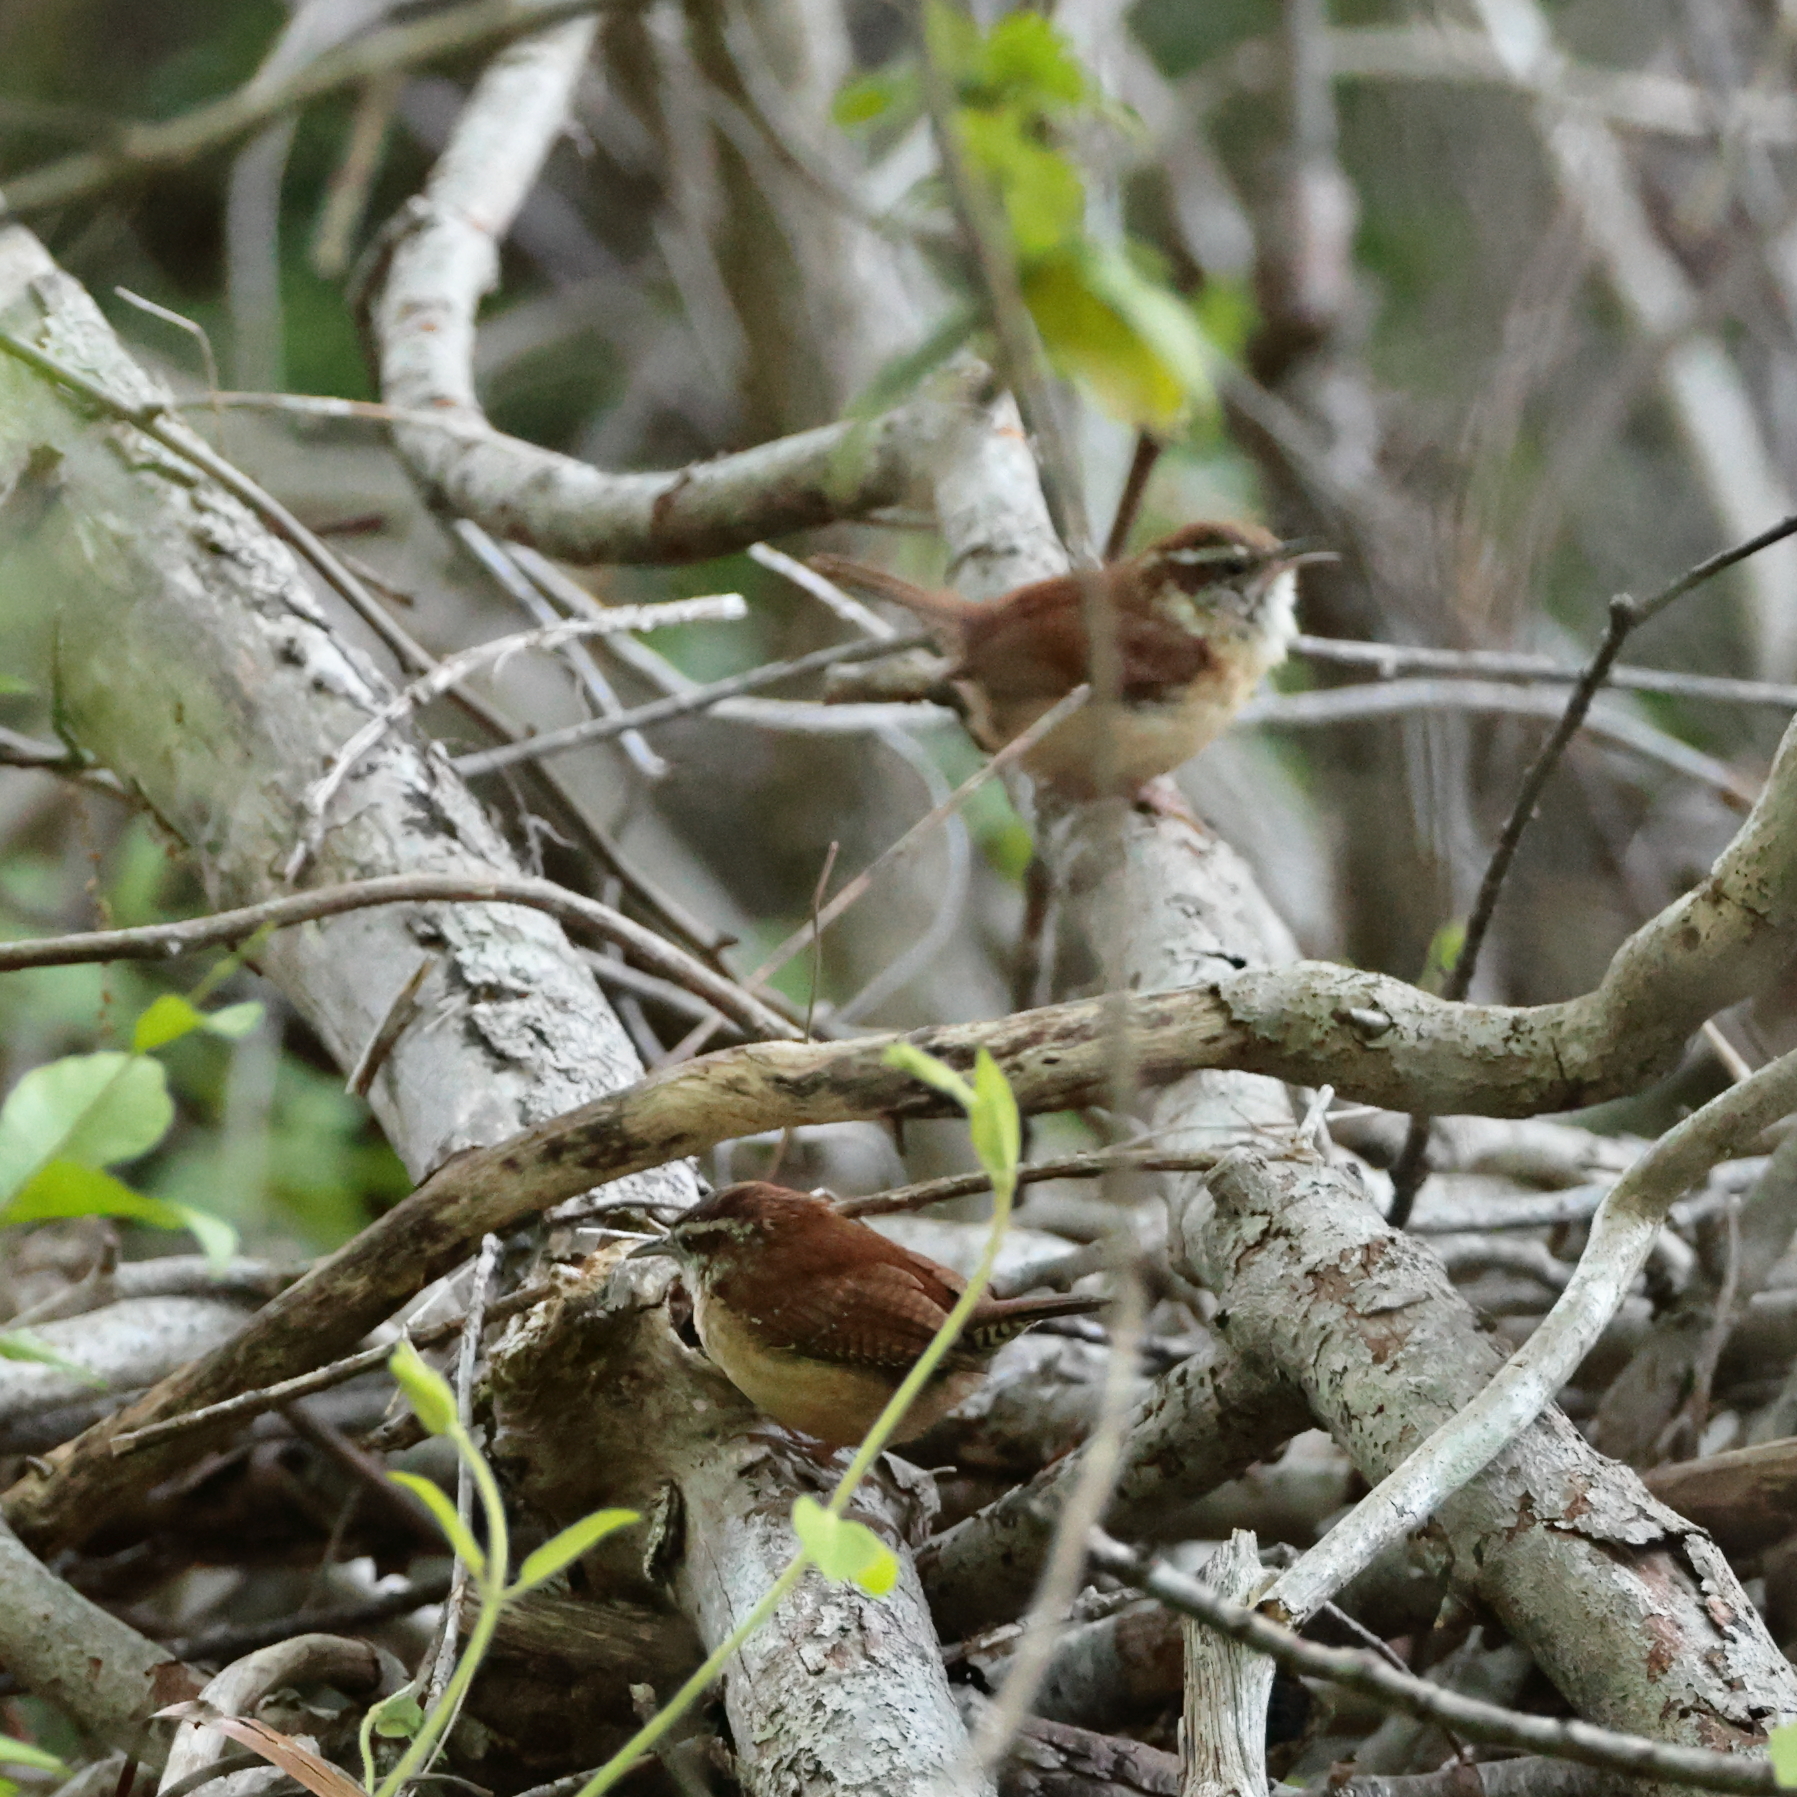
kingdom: Animalia
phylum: Chordata
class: Aves
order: Passeriformes
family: Troglodytidae
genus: Thryothorus
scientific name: Thryothorus ludovicianus
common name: Carolina wren
